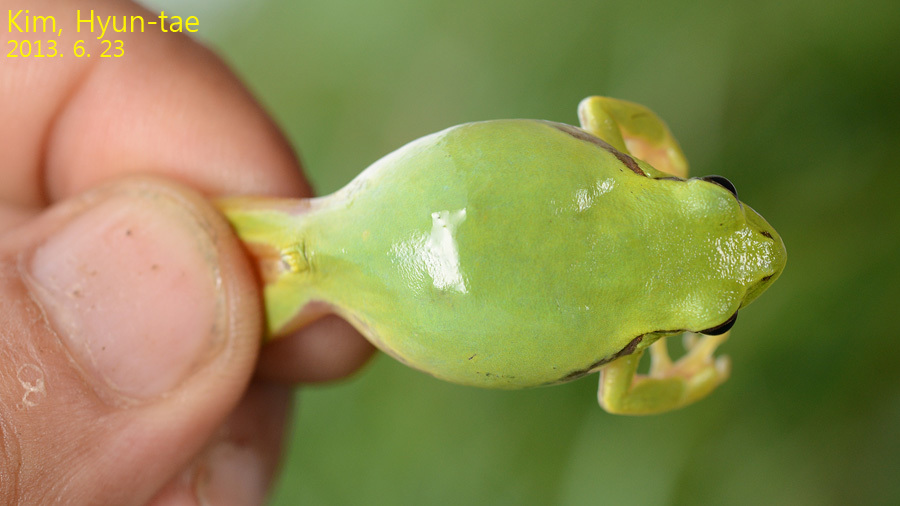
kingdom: Animalia
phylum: Chordata
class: Amphibia
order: Anura
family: Hylidae
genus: Dryophytes
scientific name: Dryophytes immaculatus
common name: North china treefrog
